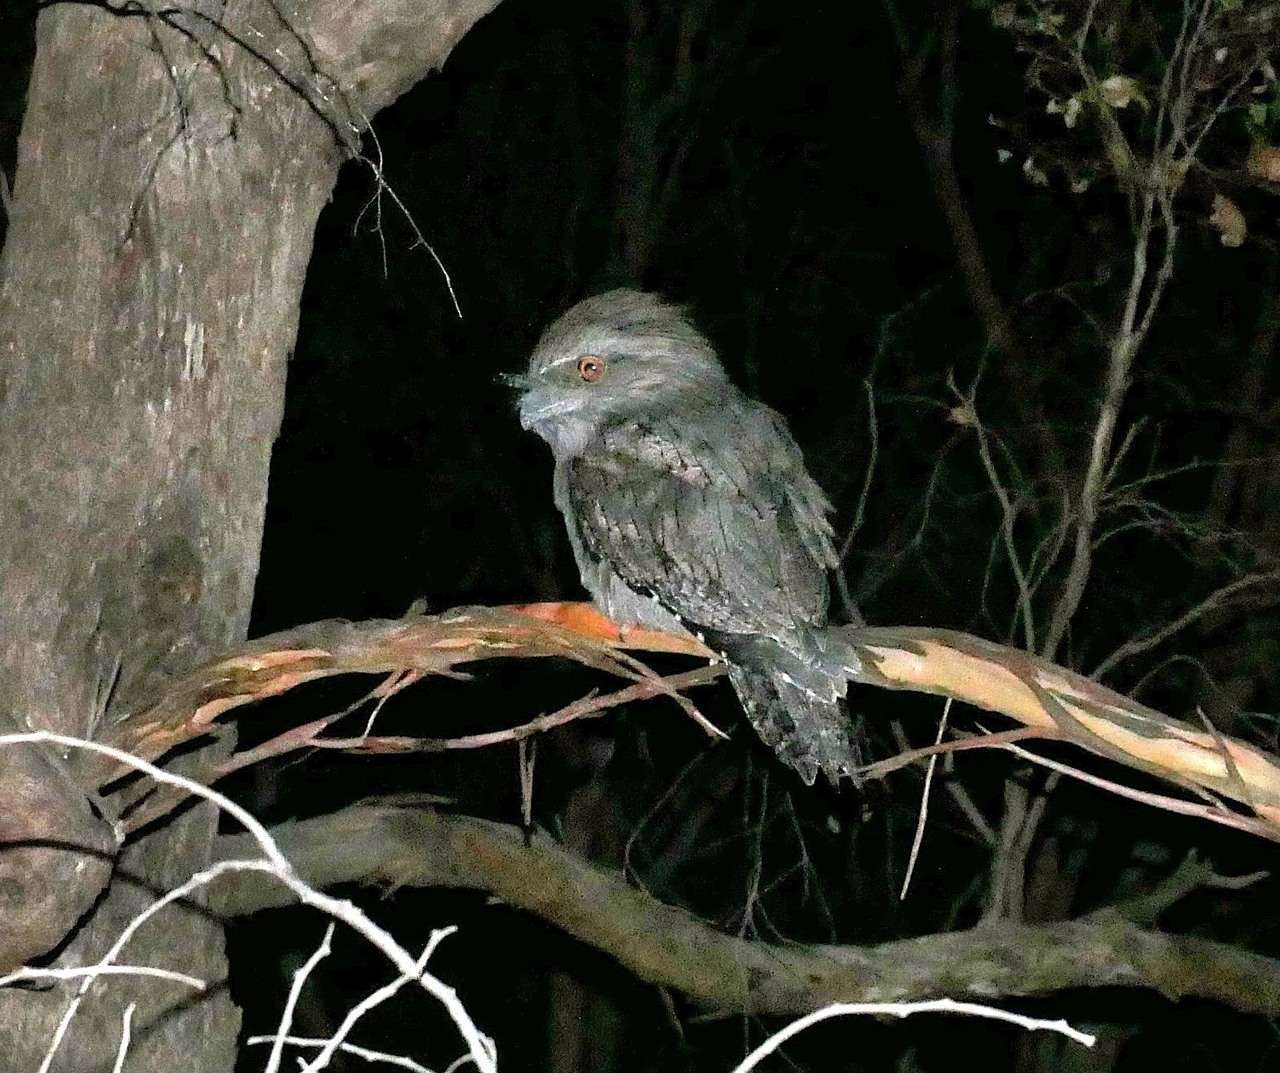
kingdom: Animalia
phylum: Chordata
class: Aves
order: Caprimulgiformes
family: Podargidae
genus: Podargus
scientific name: Podargus strigoides
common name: Tawny frogmouth
